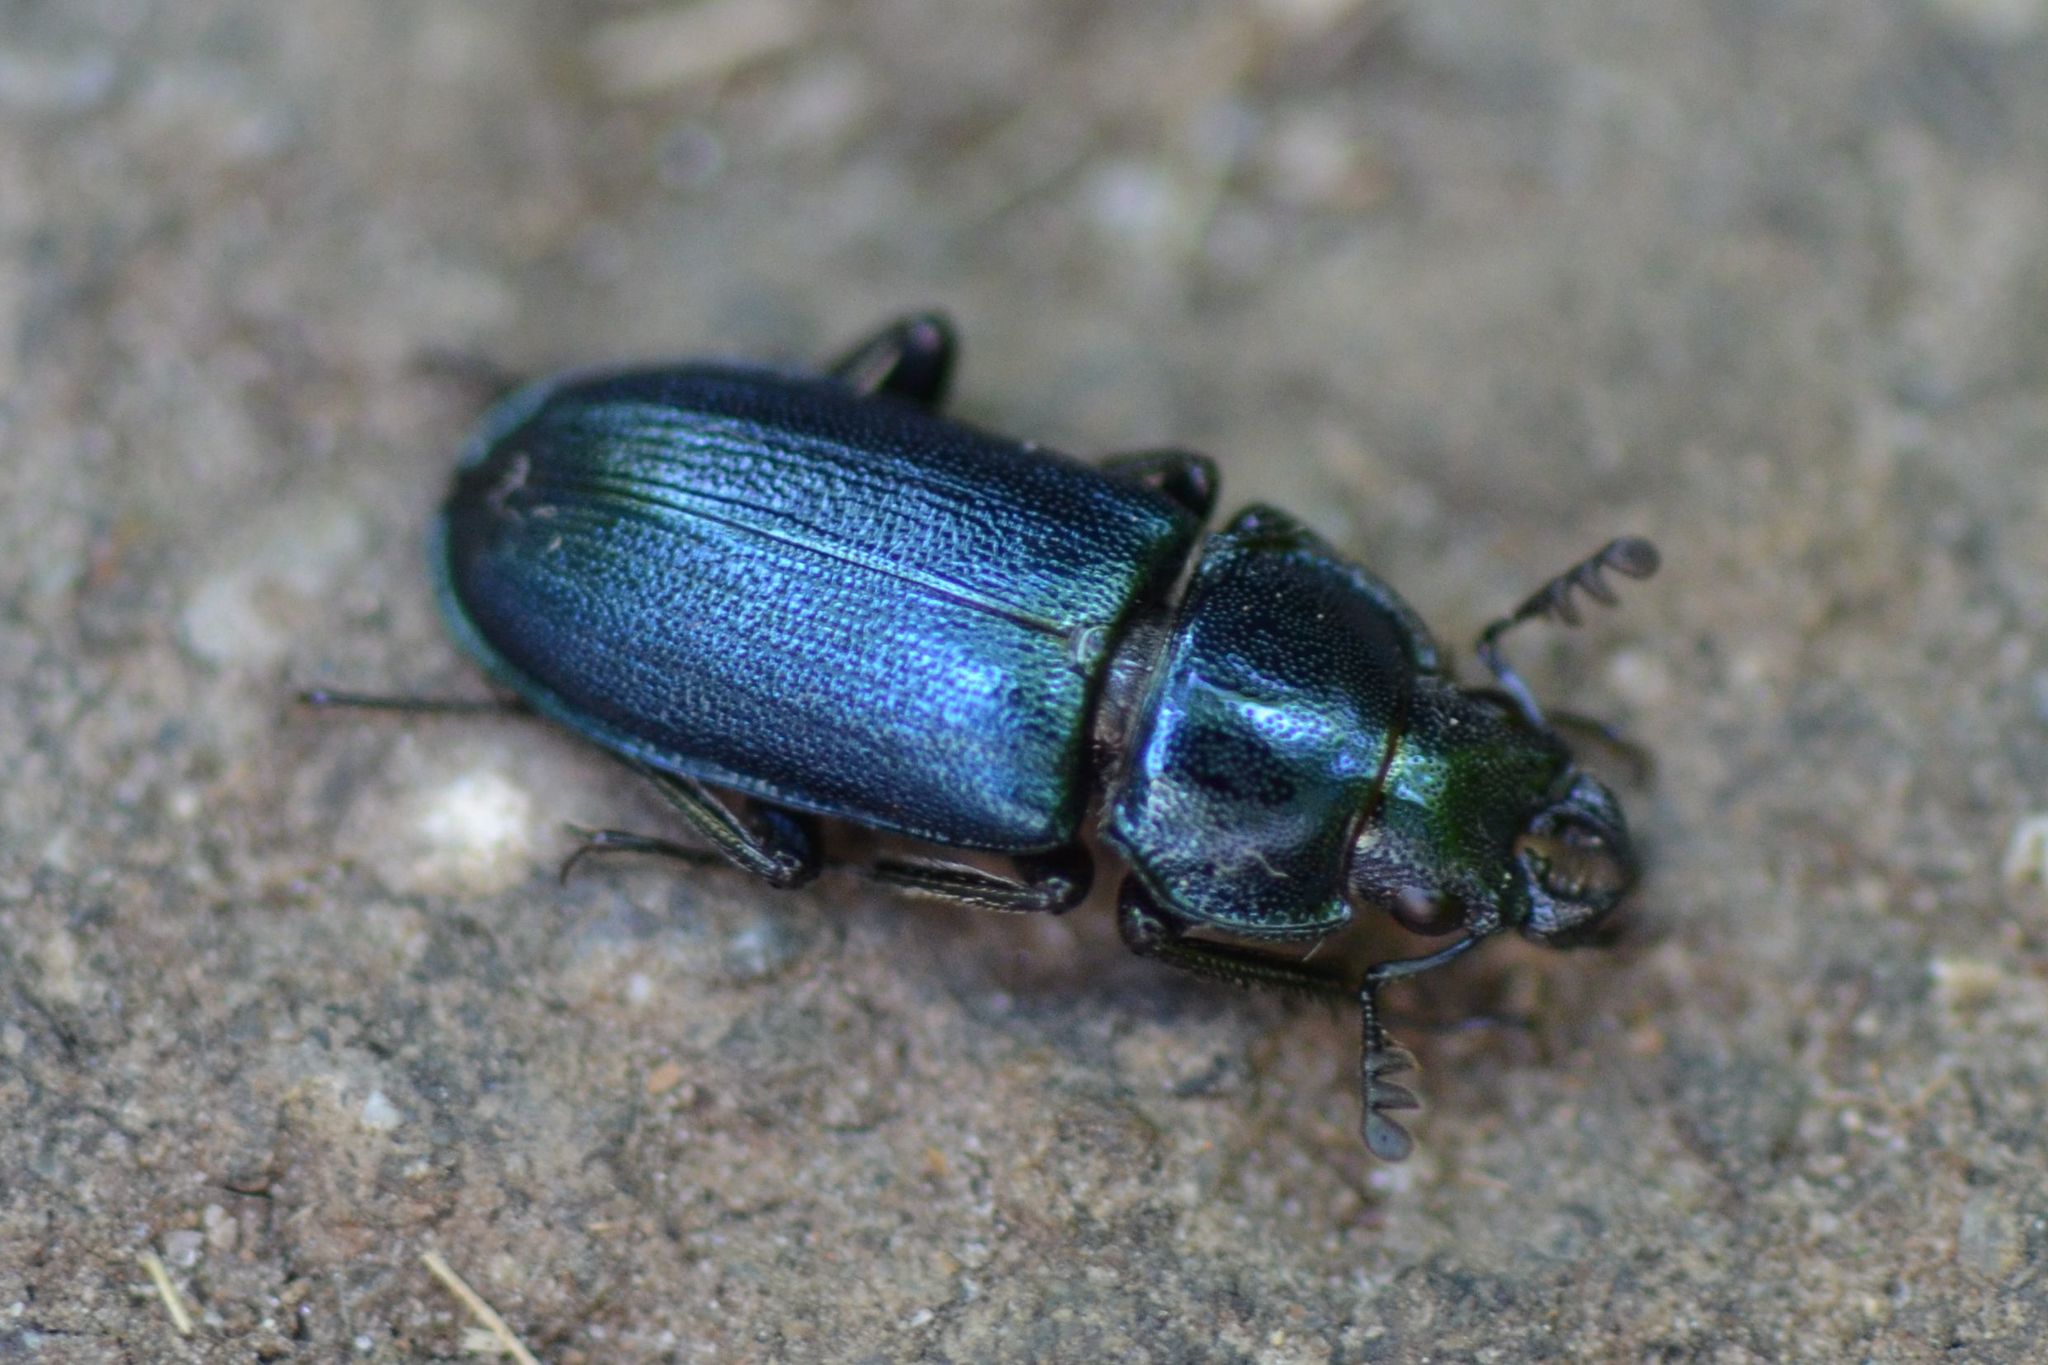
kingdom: Animalia
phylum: Arthropoda
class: Insecta
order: Coleoptera
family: Lucanidae
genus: Platycerus
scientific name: Platycerus caraboides
